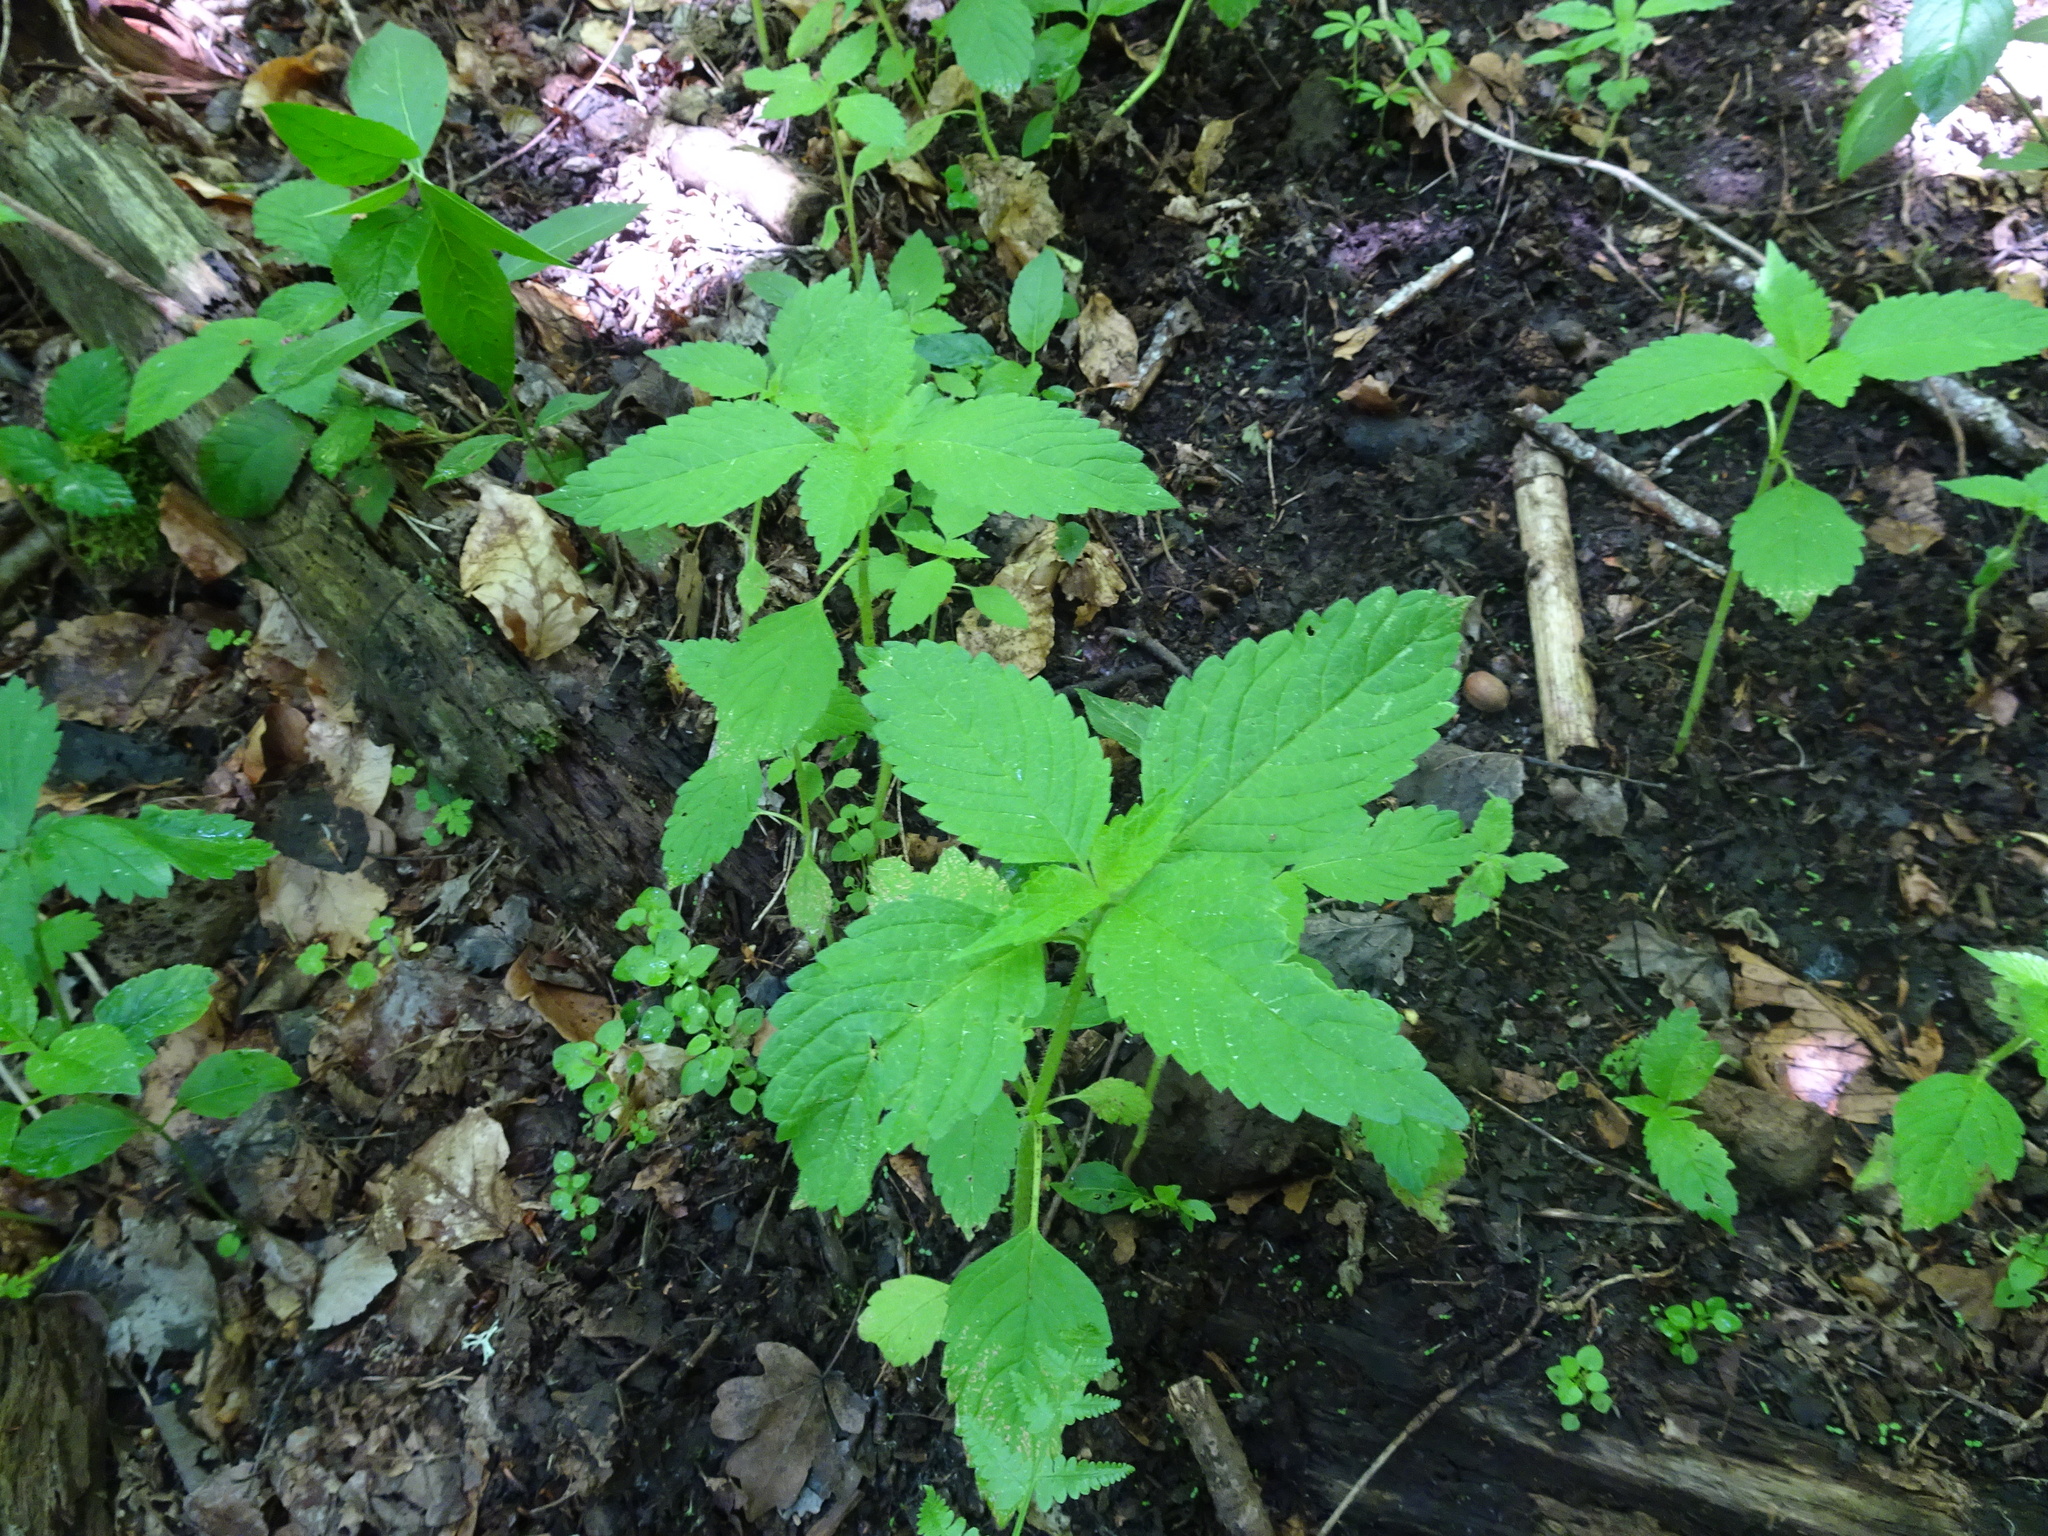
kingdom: Plantae
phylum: Tracheophyta
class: Magnoliopsida
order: Ericales
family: Balsaminaceae
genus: Impatiens
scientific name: Impatiens noli-tangere
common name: Touch-me-not balsam
